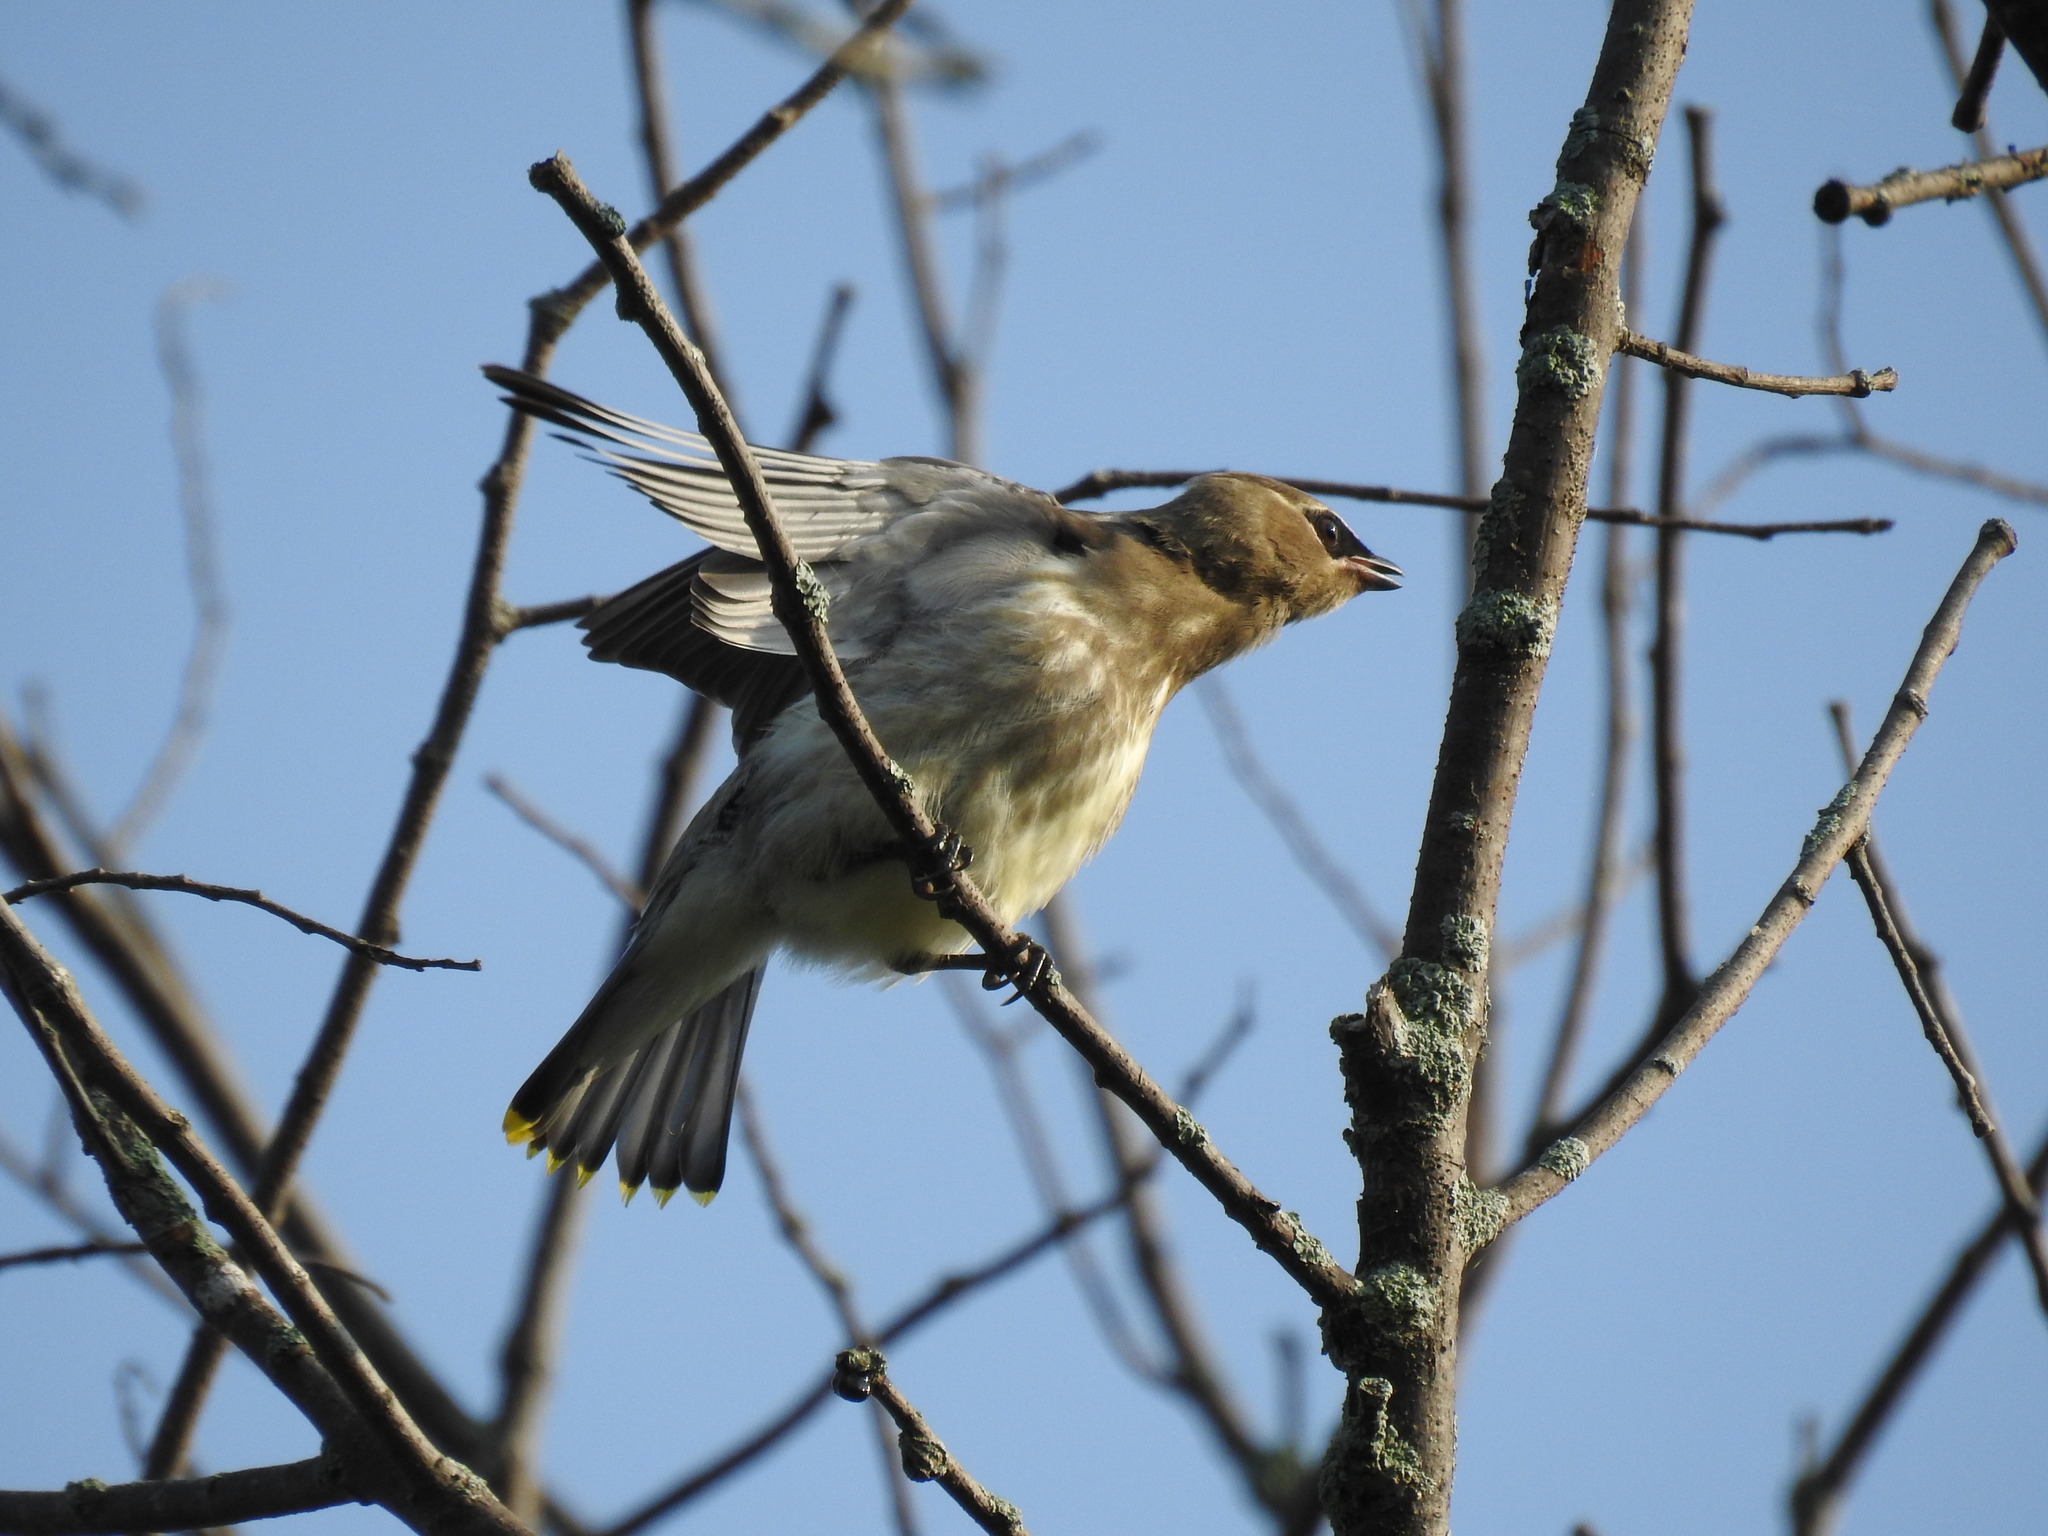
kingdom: Animalia
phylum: Chordata
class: Aves
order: Passeriformes
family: Bombycillidae
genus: Bombycilla
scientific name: Bombycilla cedrorum
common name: Cedar waxwing
